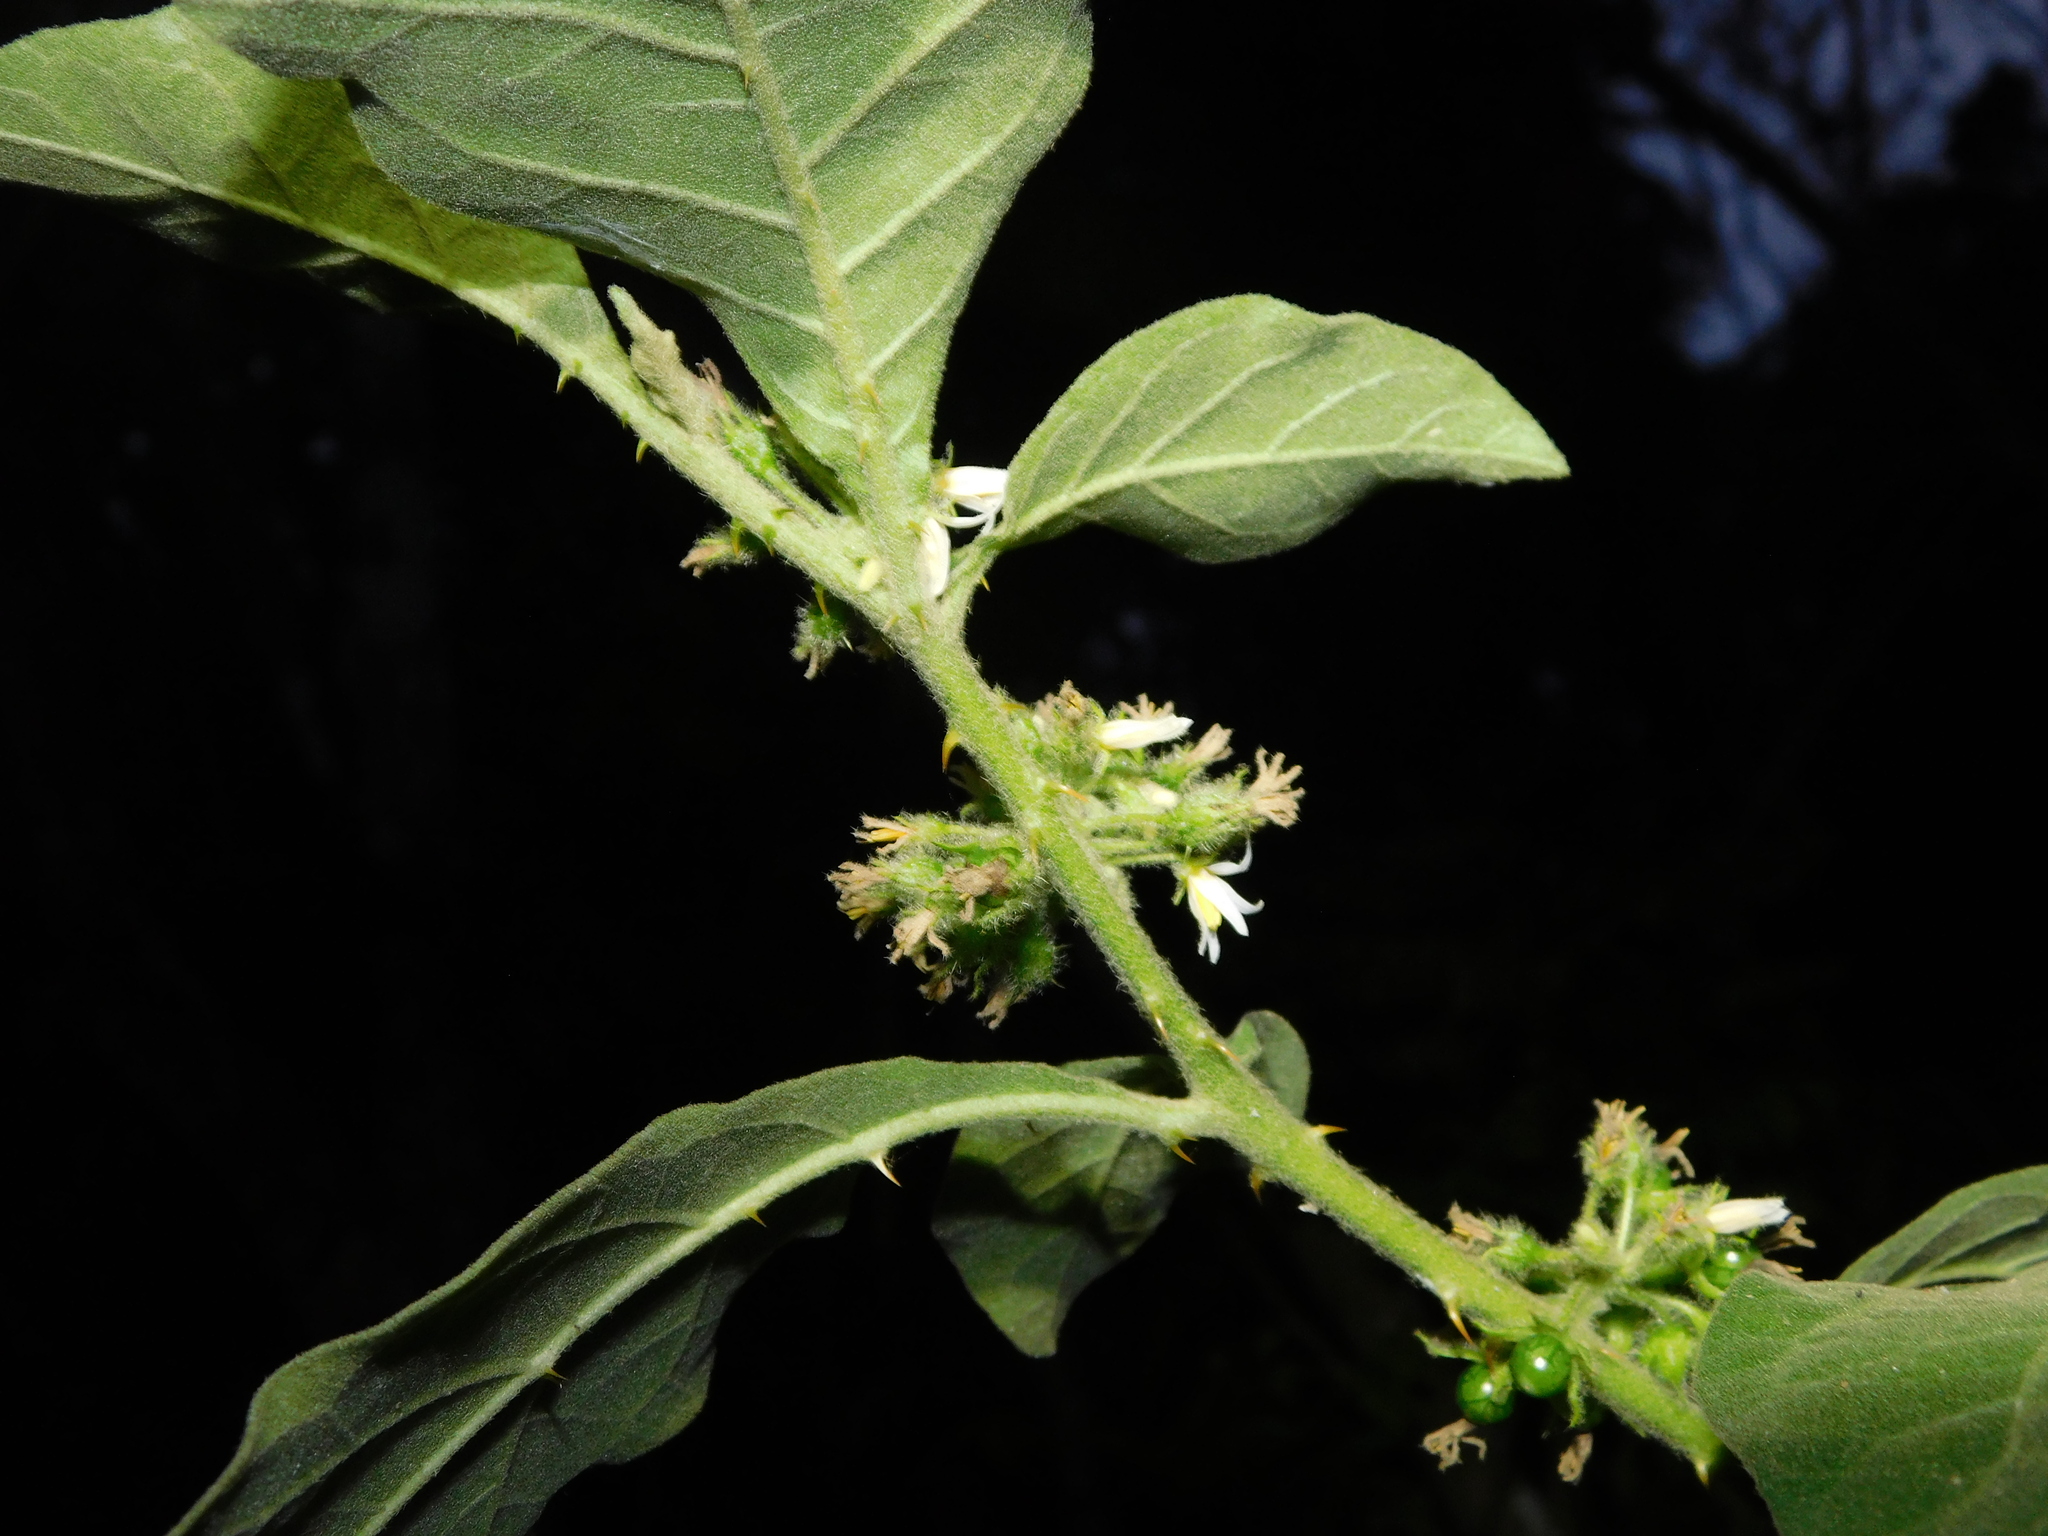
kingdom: Plantae
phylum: Tracheophyta
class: Magnoliopsida
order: Solanales
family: Solanaceae
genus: Solanum
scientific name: Solanum jamaicense
